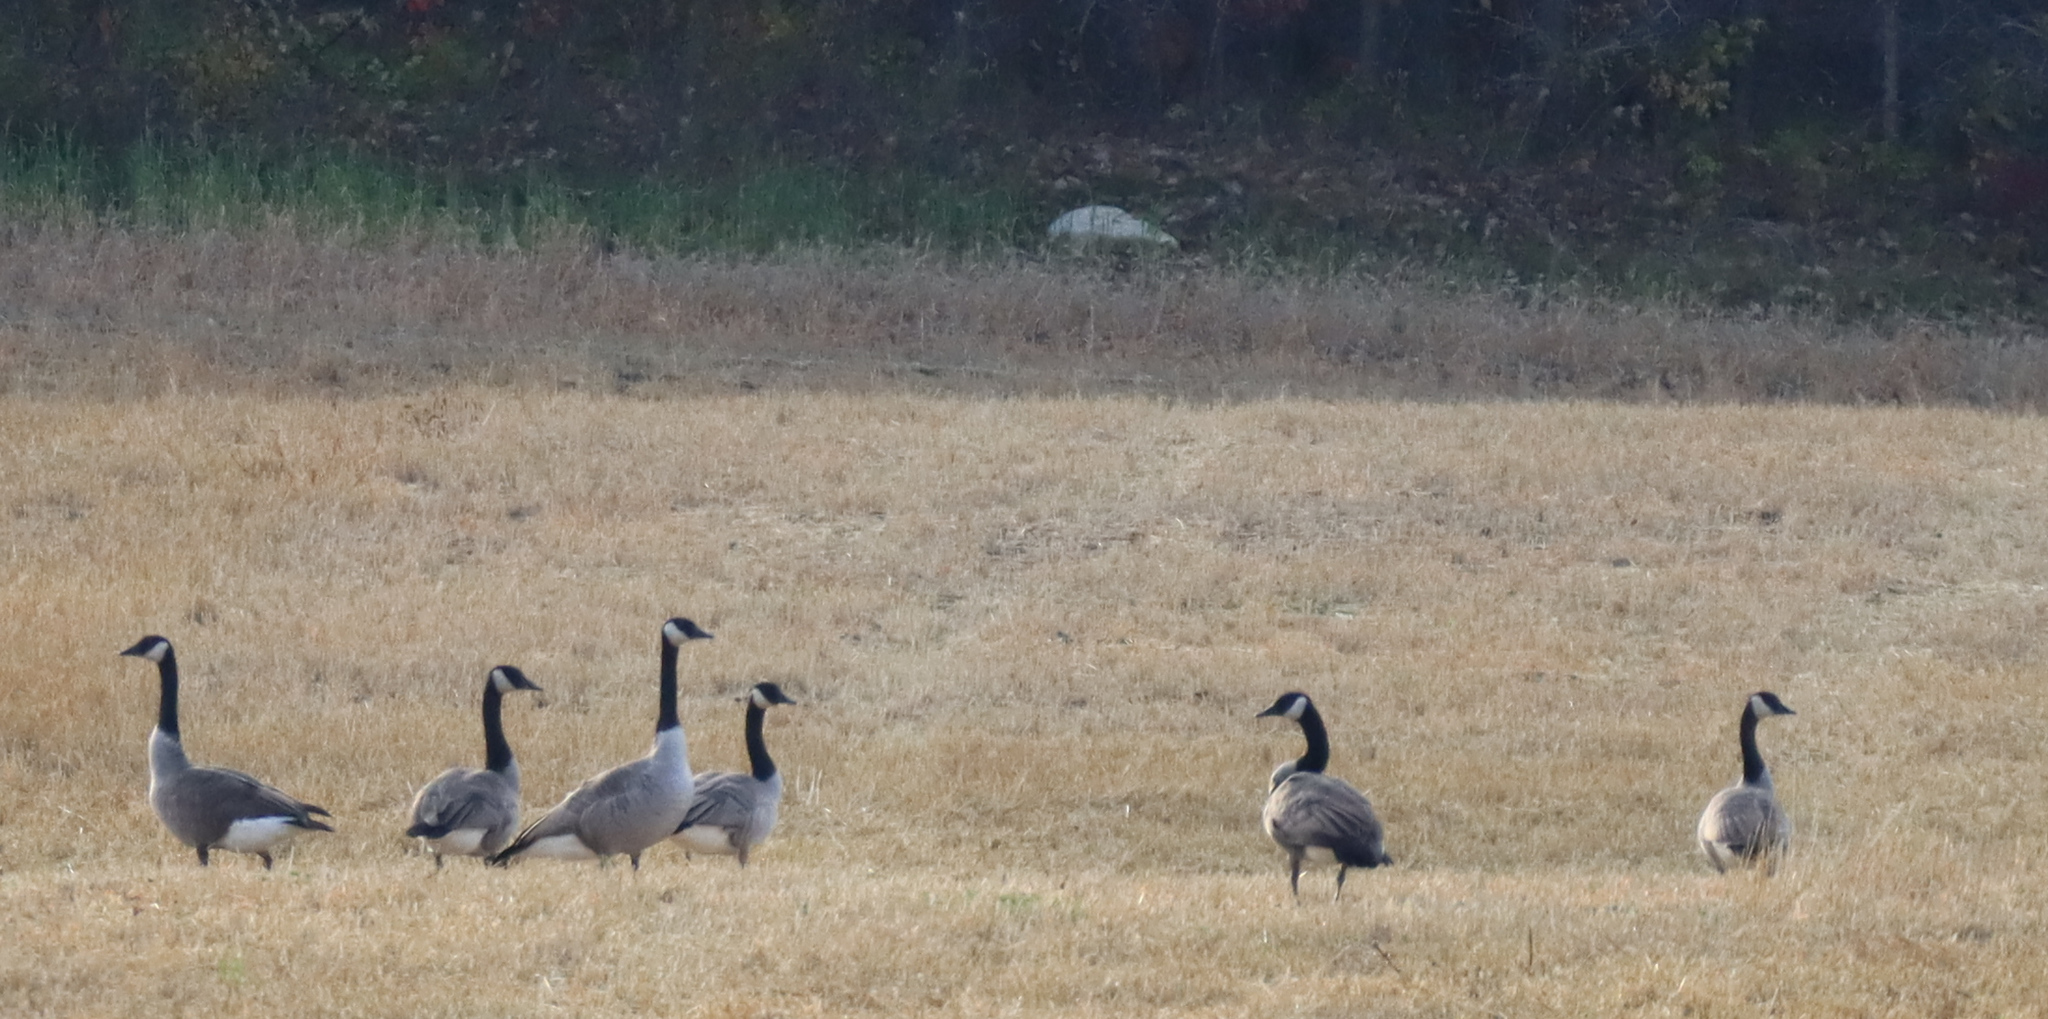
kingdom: Animalia
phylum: Chordata
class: Aves
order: Anseriformes
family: Anatidae
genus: Branta
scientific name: Branta canadensis
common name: Canada goose
